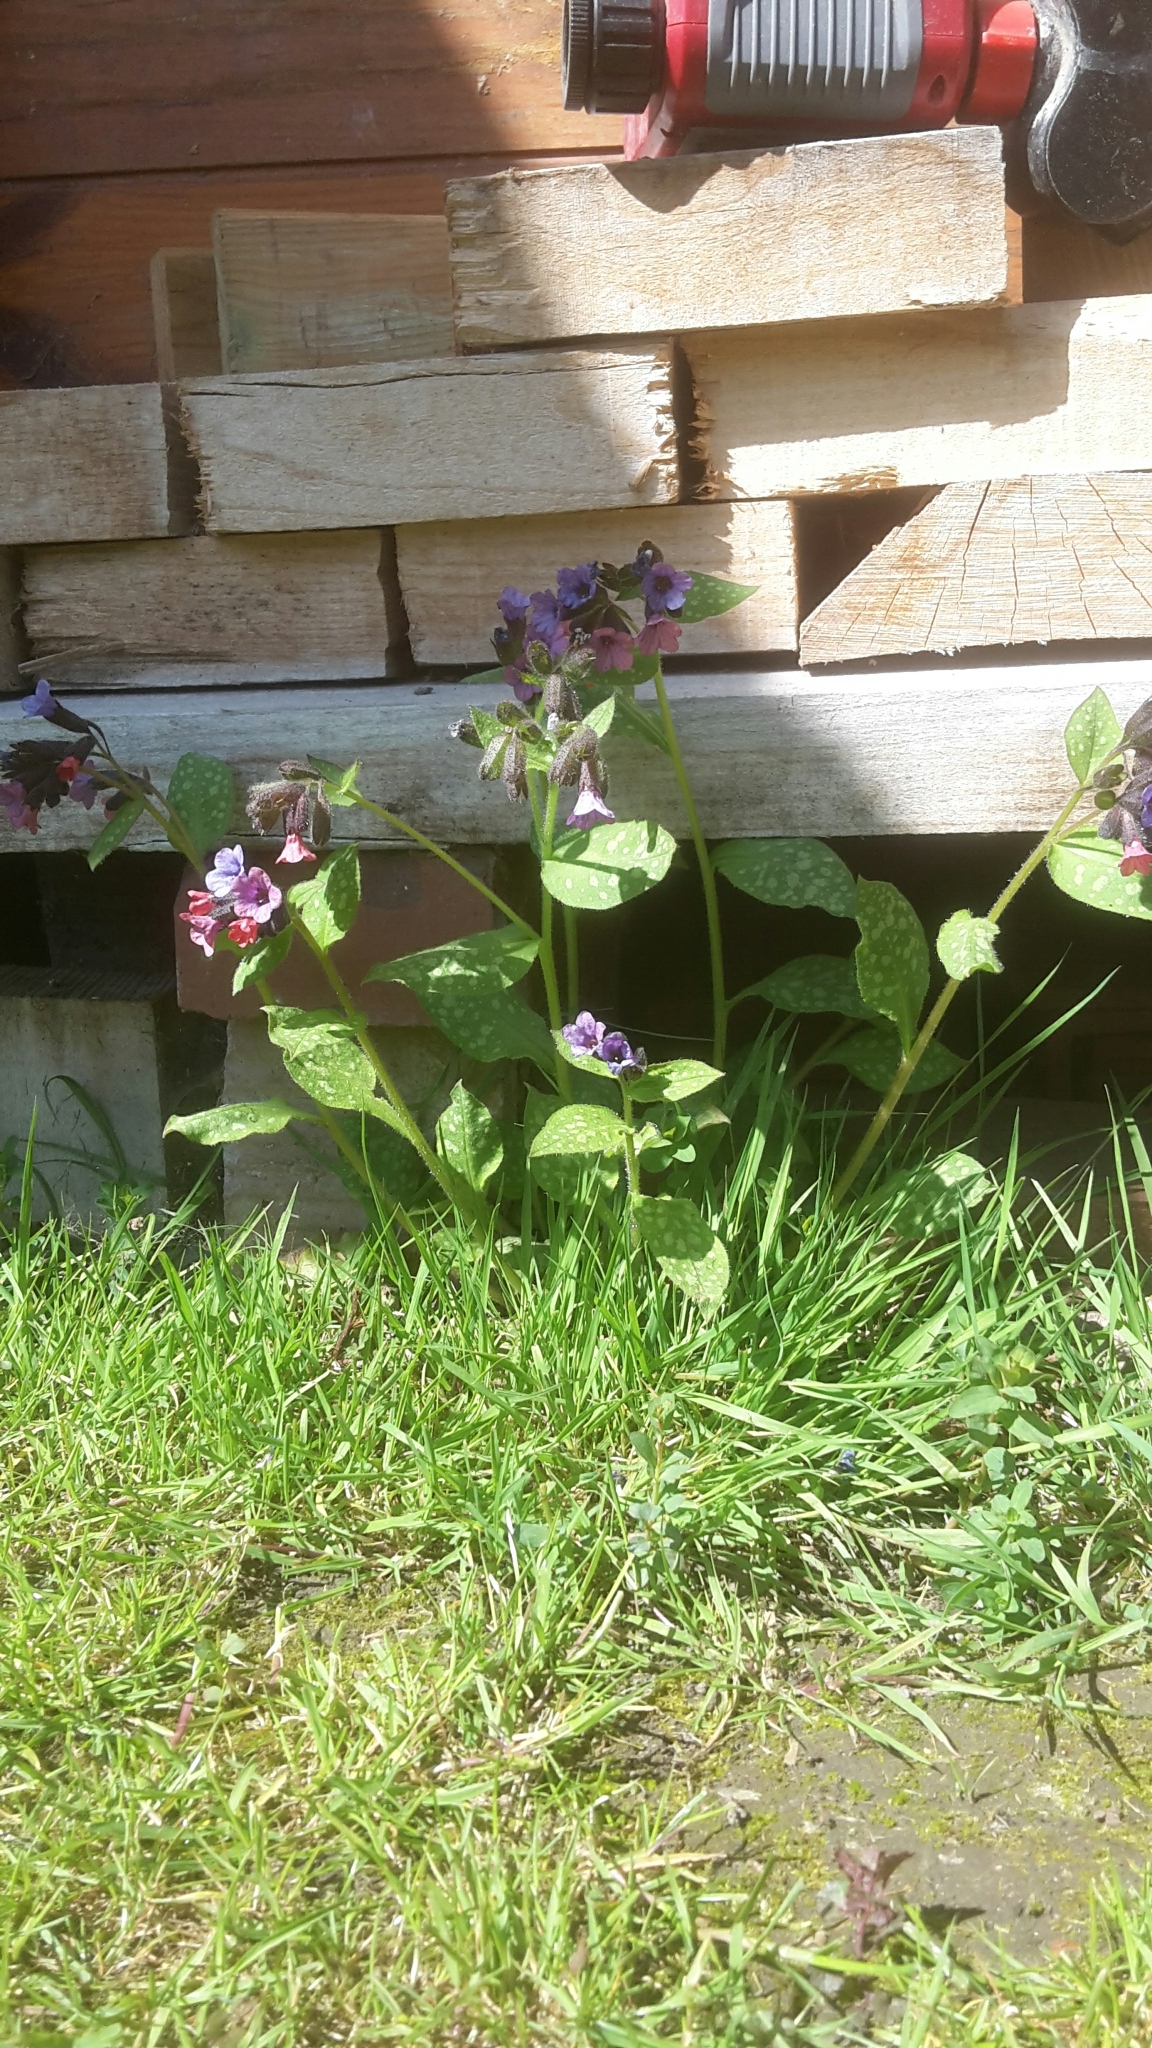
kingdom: Plantae
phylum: Tracheophyta
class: Magnoliopsida
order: Boraginales
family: Boraginaceae
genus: Pulmonaria
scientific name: Pulmonaria officinalis
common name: Lungwort
